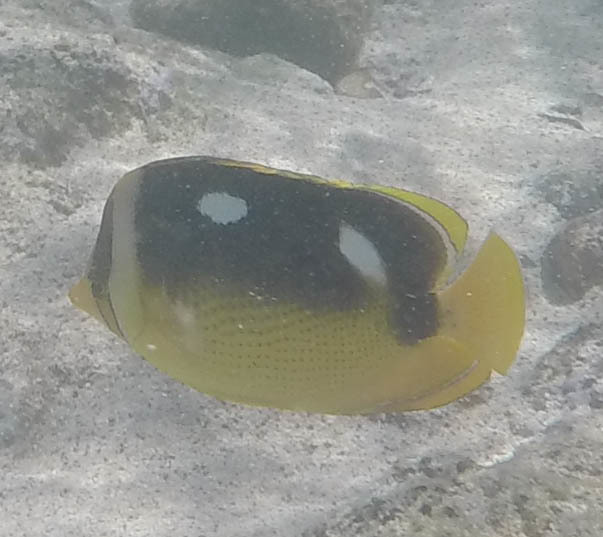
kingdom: Animalia
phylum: Chordata
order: Perciformes
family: Chaetodontidae
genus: Chaetodon
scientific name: Chaetodon quadrimaculatus
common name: Fourspot butterflyfish
